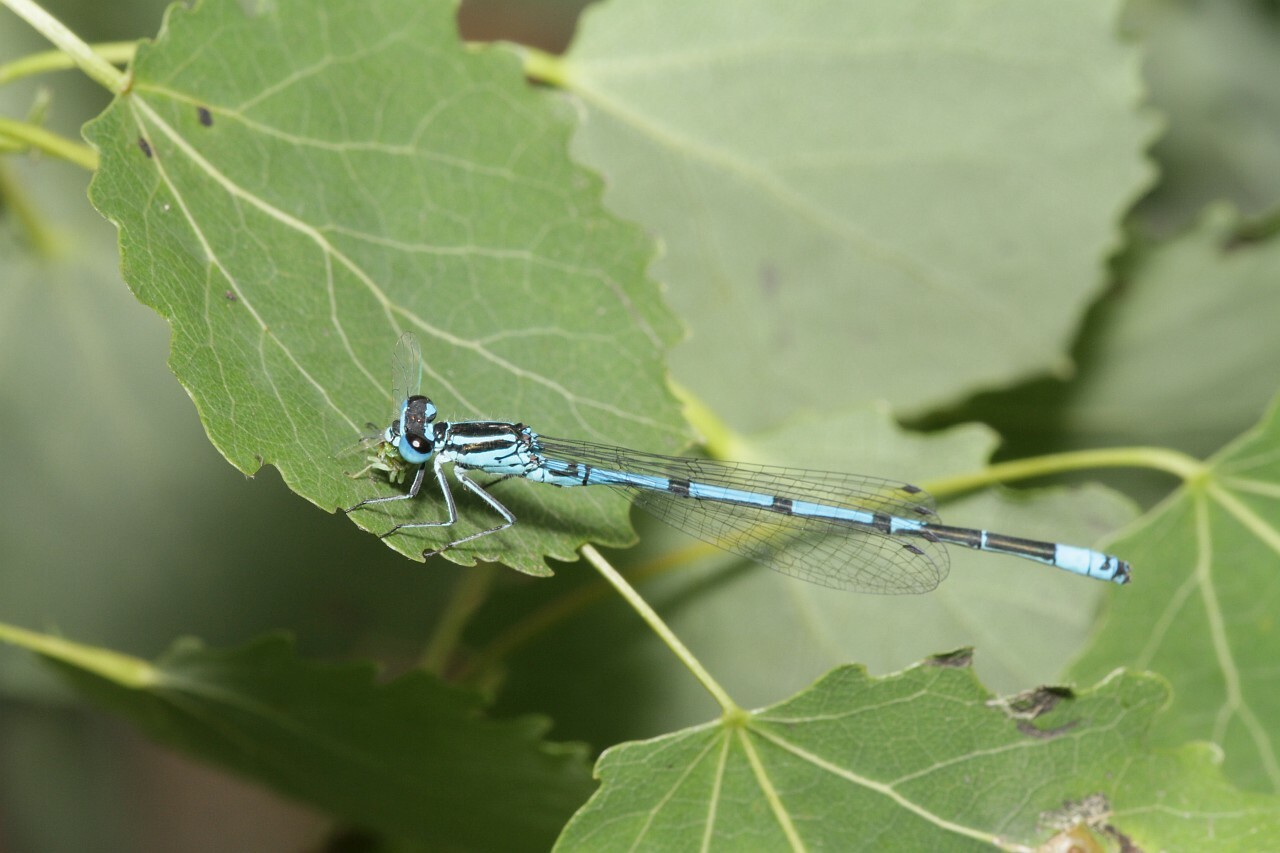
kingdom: Animalia
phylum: Arthropoda
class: Insecta
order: Odonata
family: Coenagrionidae
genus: Coenagrion
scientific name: Coenagrion puella
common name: Azure damselfly
